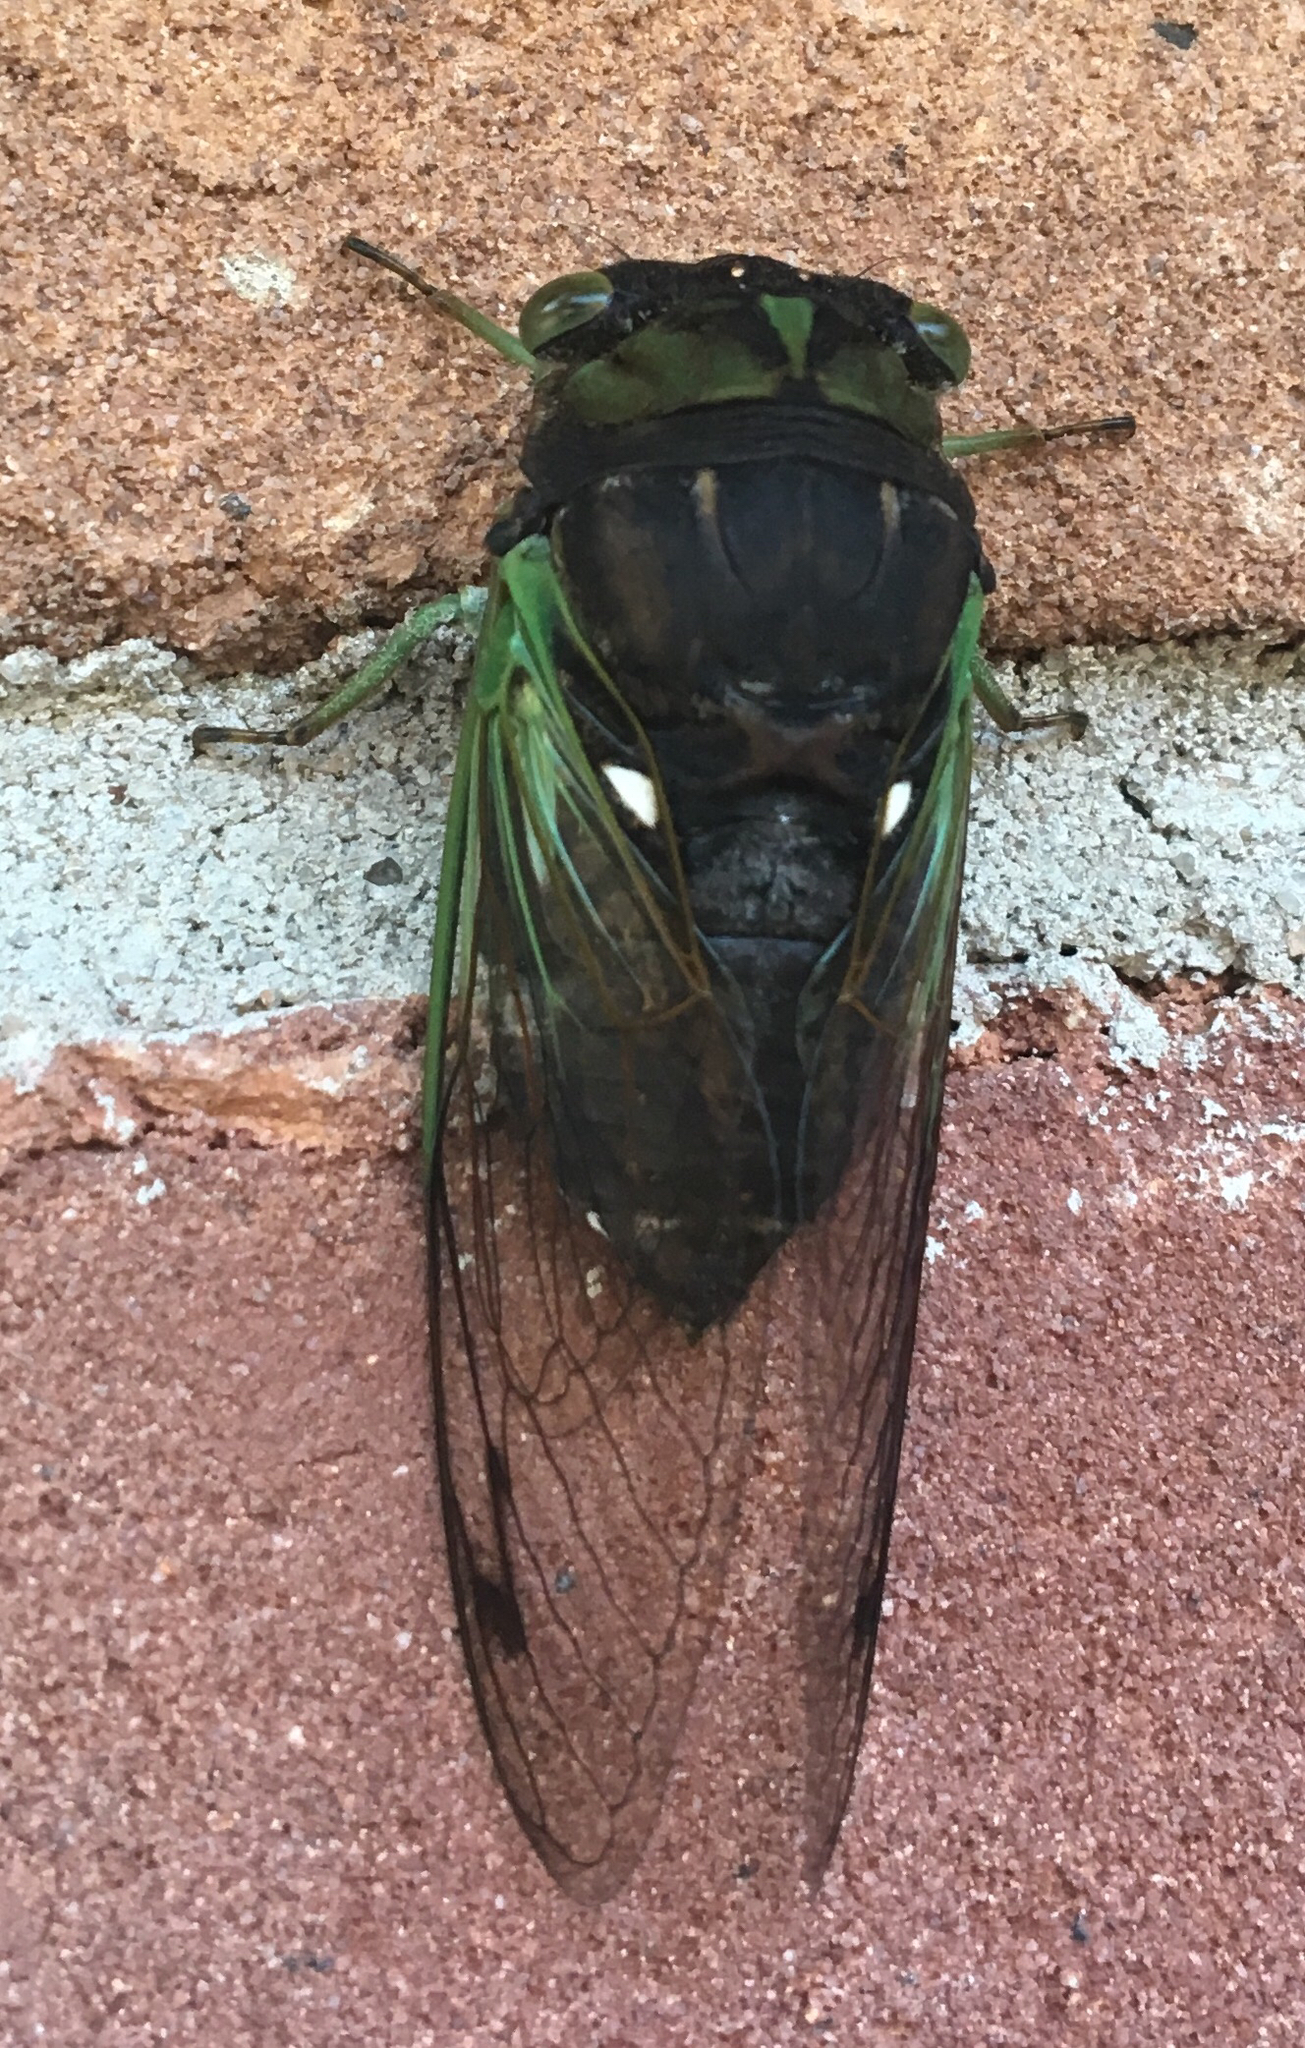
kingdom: Animalia
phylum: Arthropoda
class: Insecta
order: Hemiptera
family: Cicadidae
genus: Neotibicen
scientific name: Neotibicen tibicen
